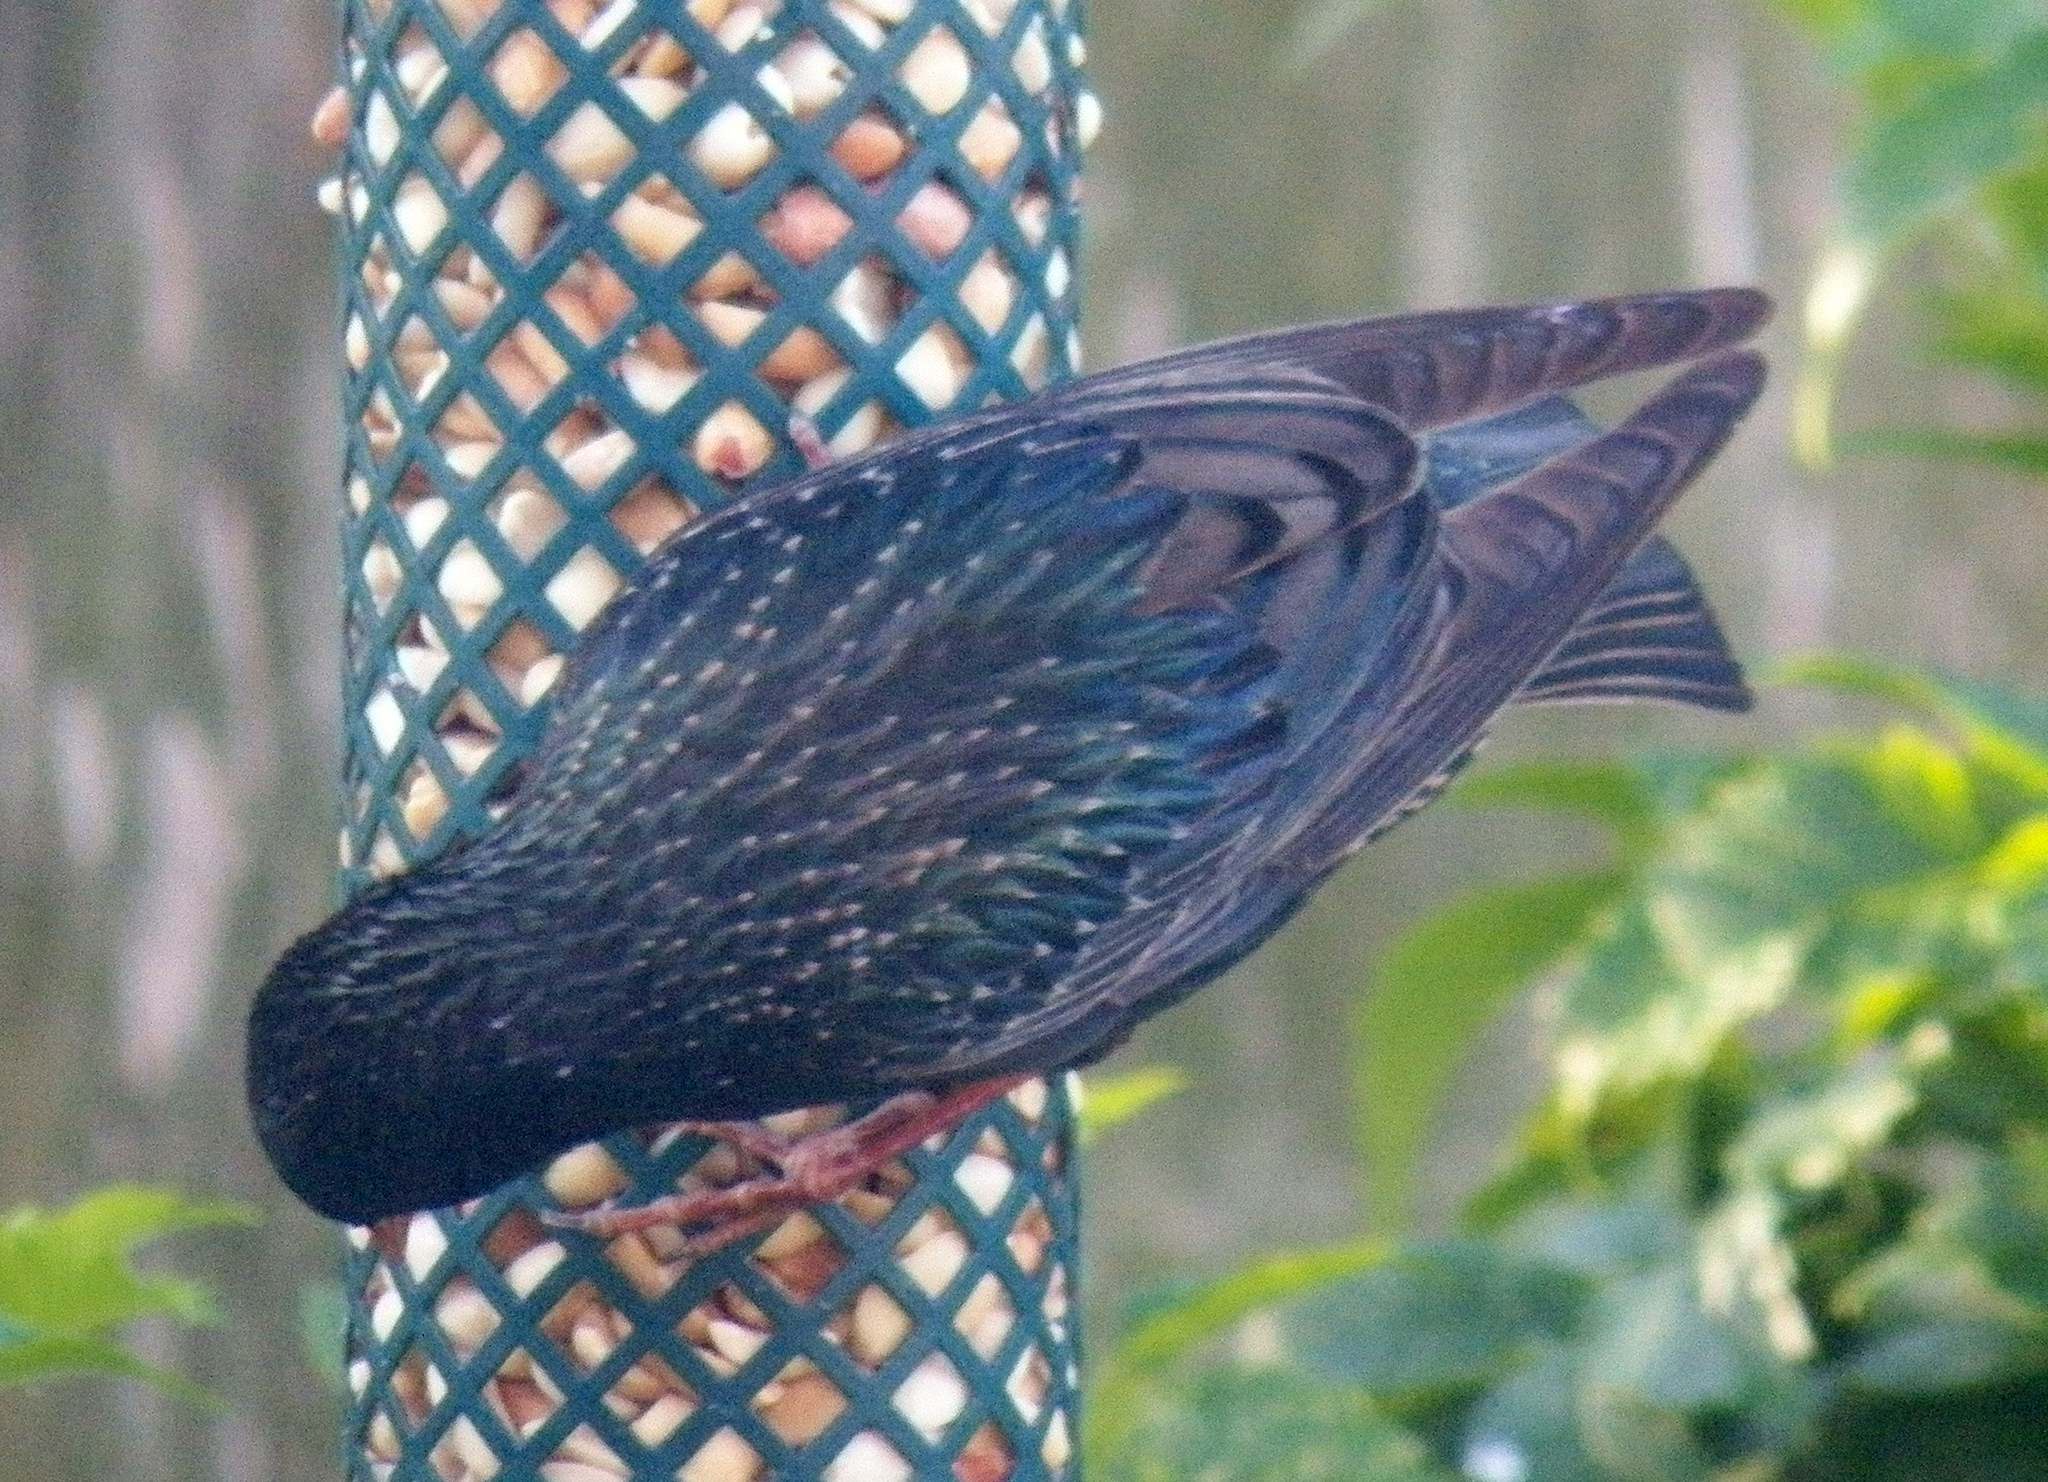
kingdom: Animalia
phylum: Chordata
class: Aves
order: Passeriformes
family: Sturnidae
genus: Sturnus
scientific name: Sturnus vulgaris
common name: Common starling
